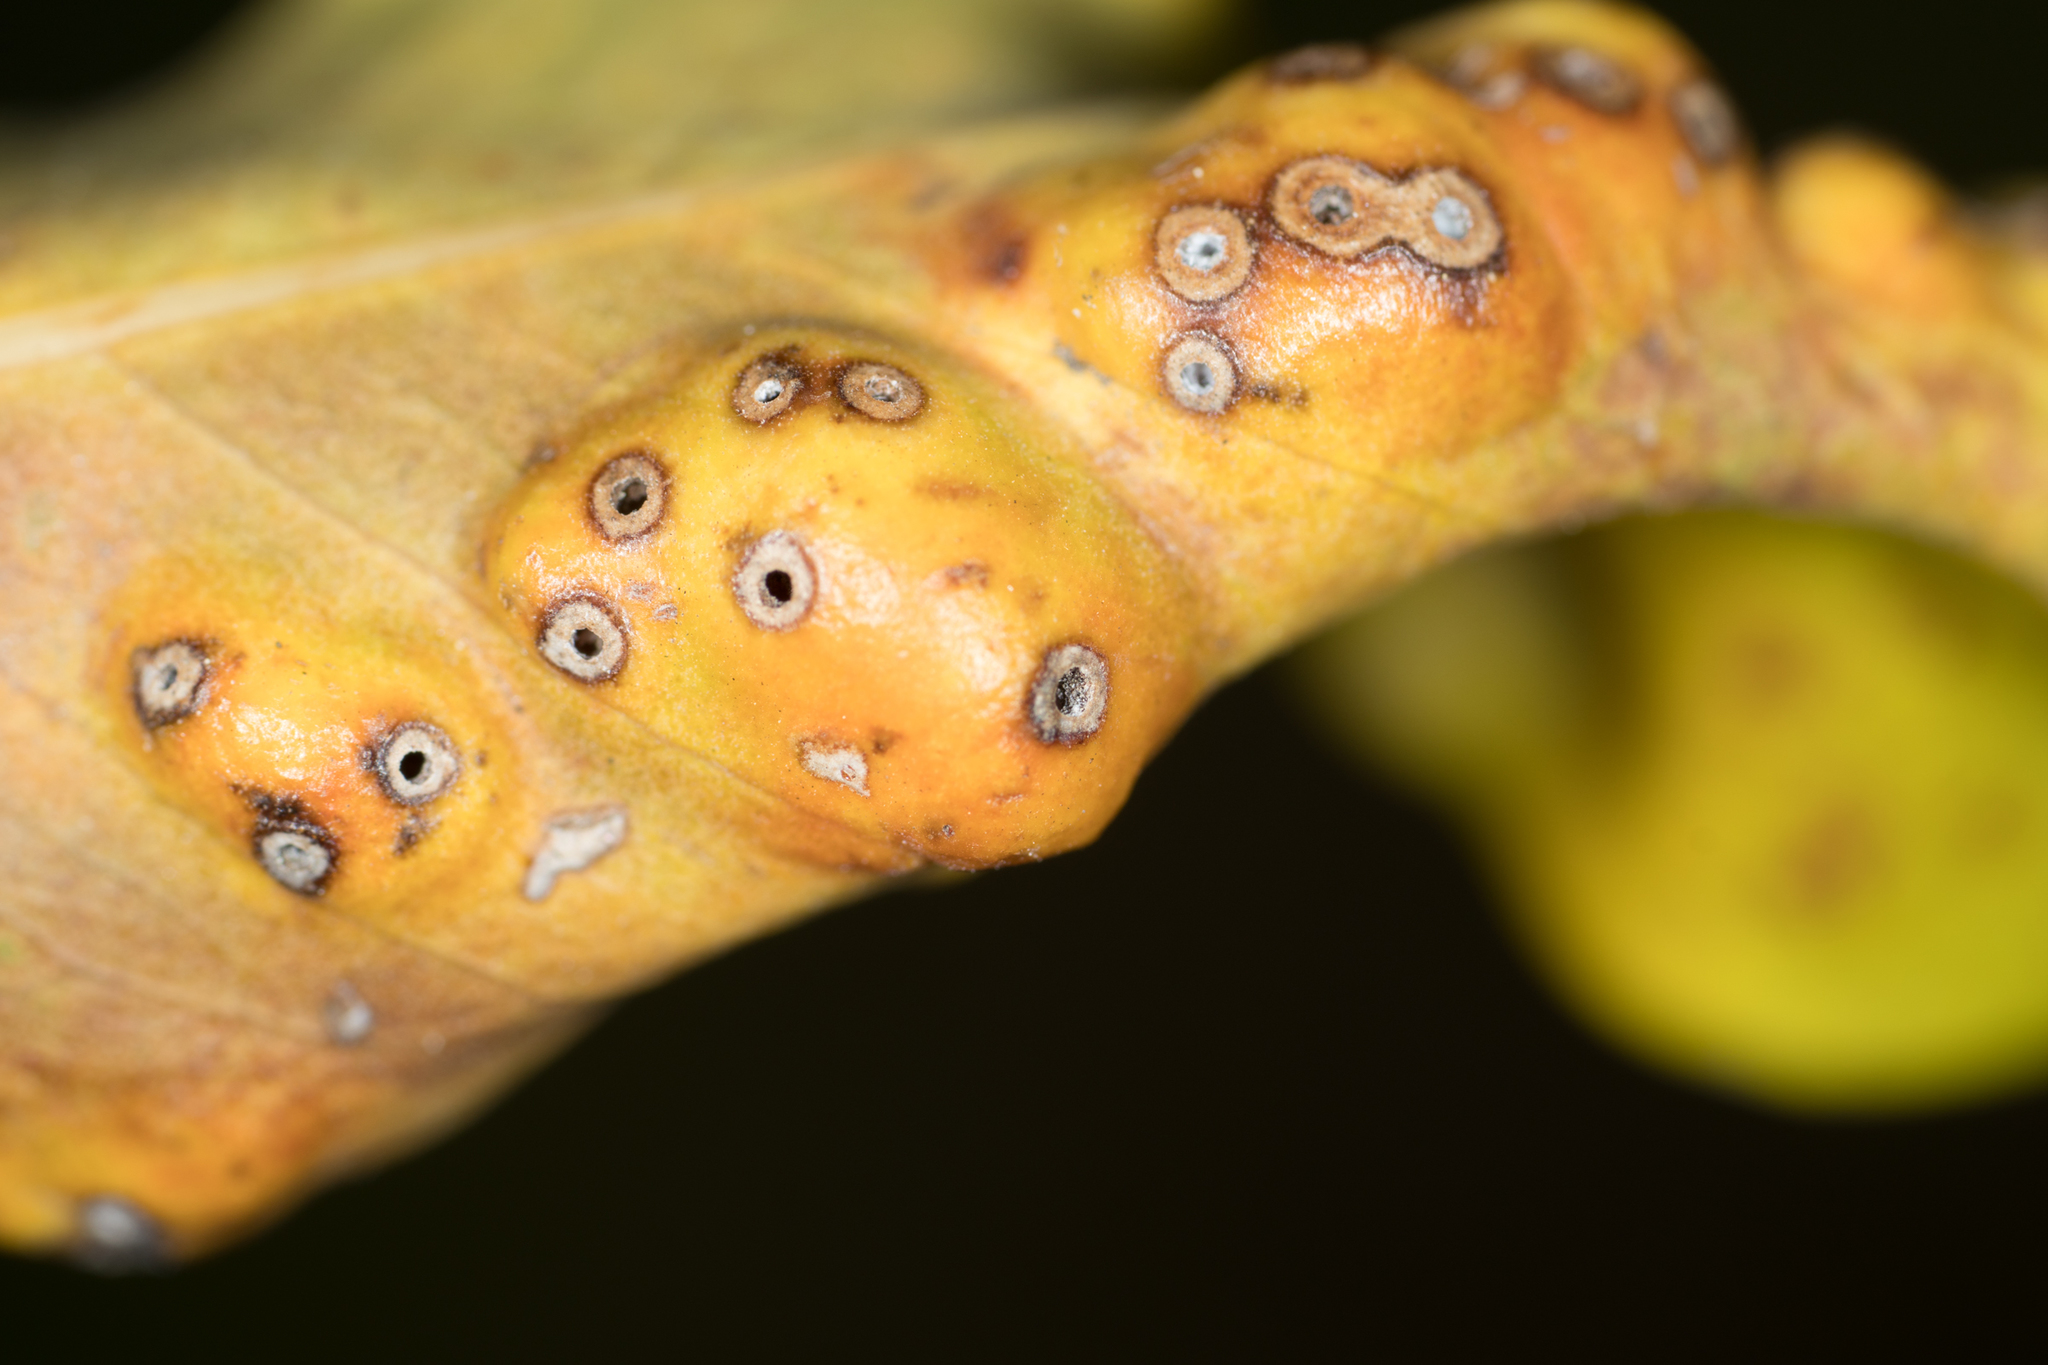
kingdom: Animalia
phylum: Arthropoda
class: Insecta
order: Hymenoptera
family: Agaonidae
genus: Josephiella
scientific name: Josephiella microcarpae
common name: Wasp
